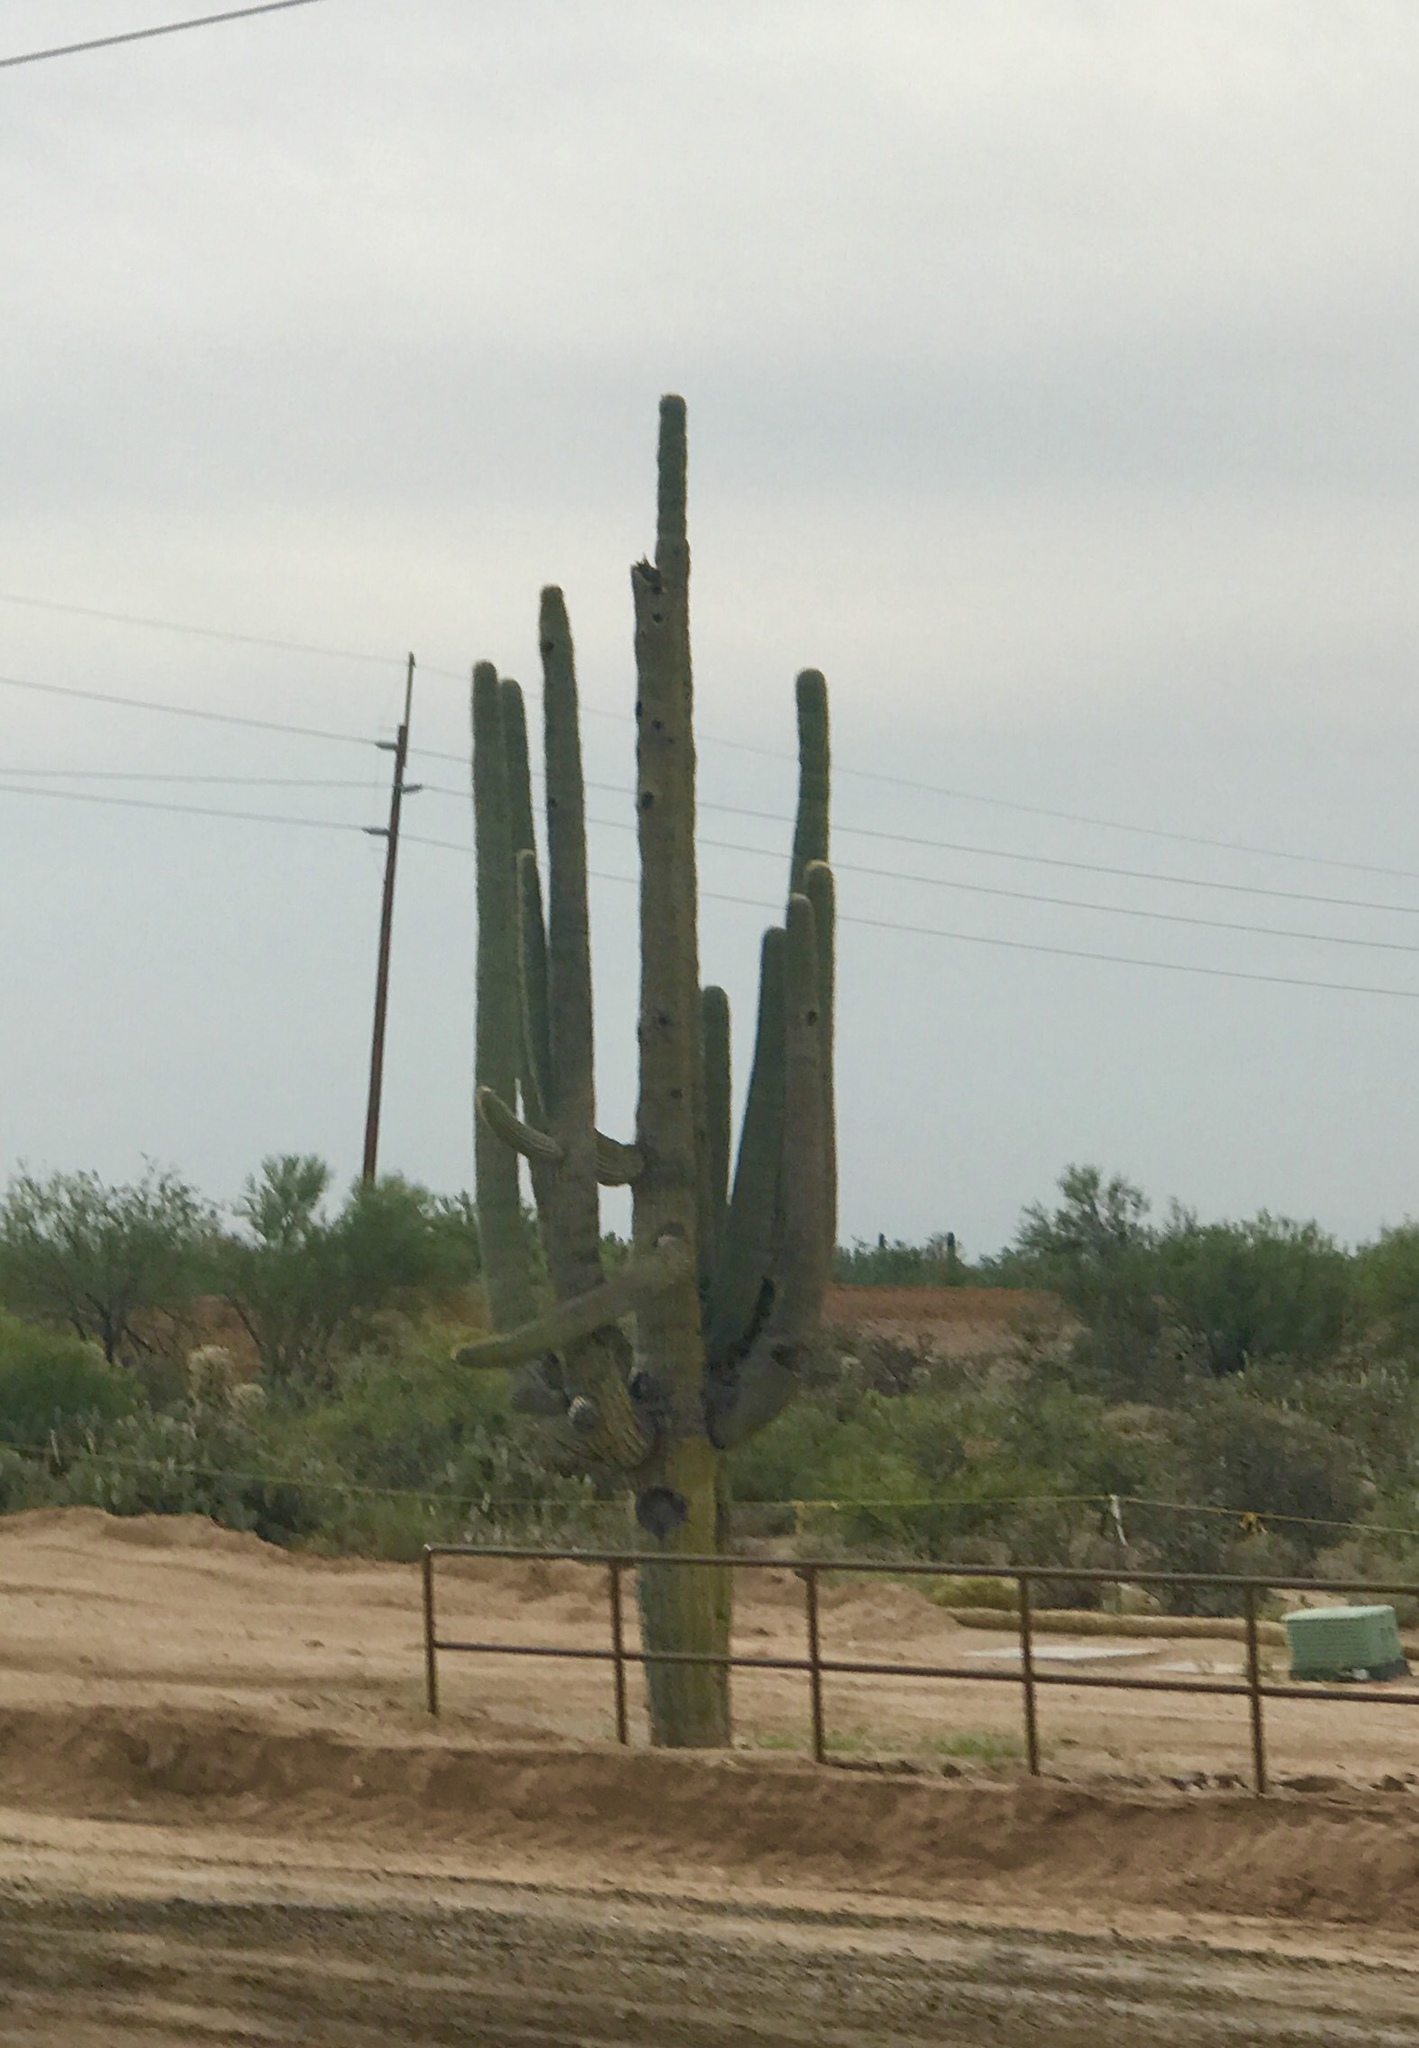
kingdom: Plantae
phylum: Tracheophyta
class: Magnoliopsida
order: Caryophyllales
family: Cactaceae
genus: Carnegiea
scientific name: Carnegiea gigantea
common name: Saguaro
